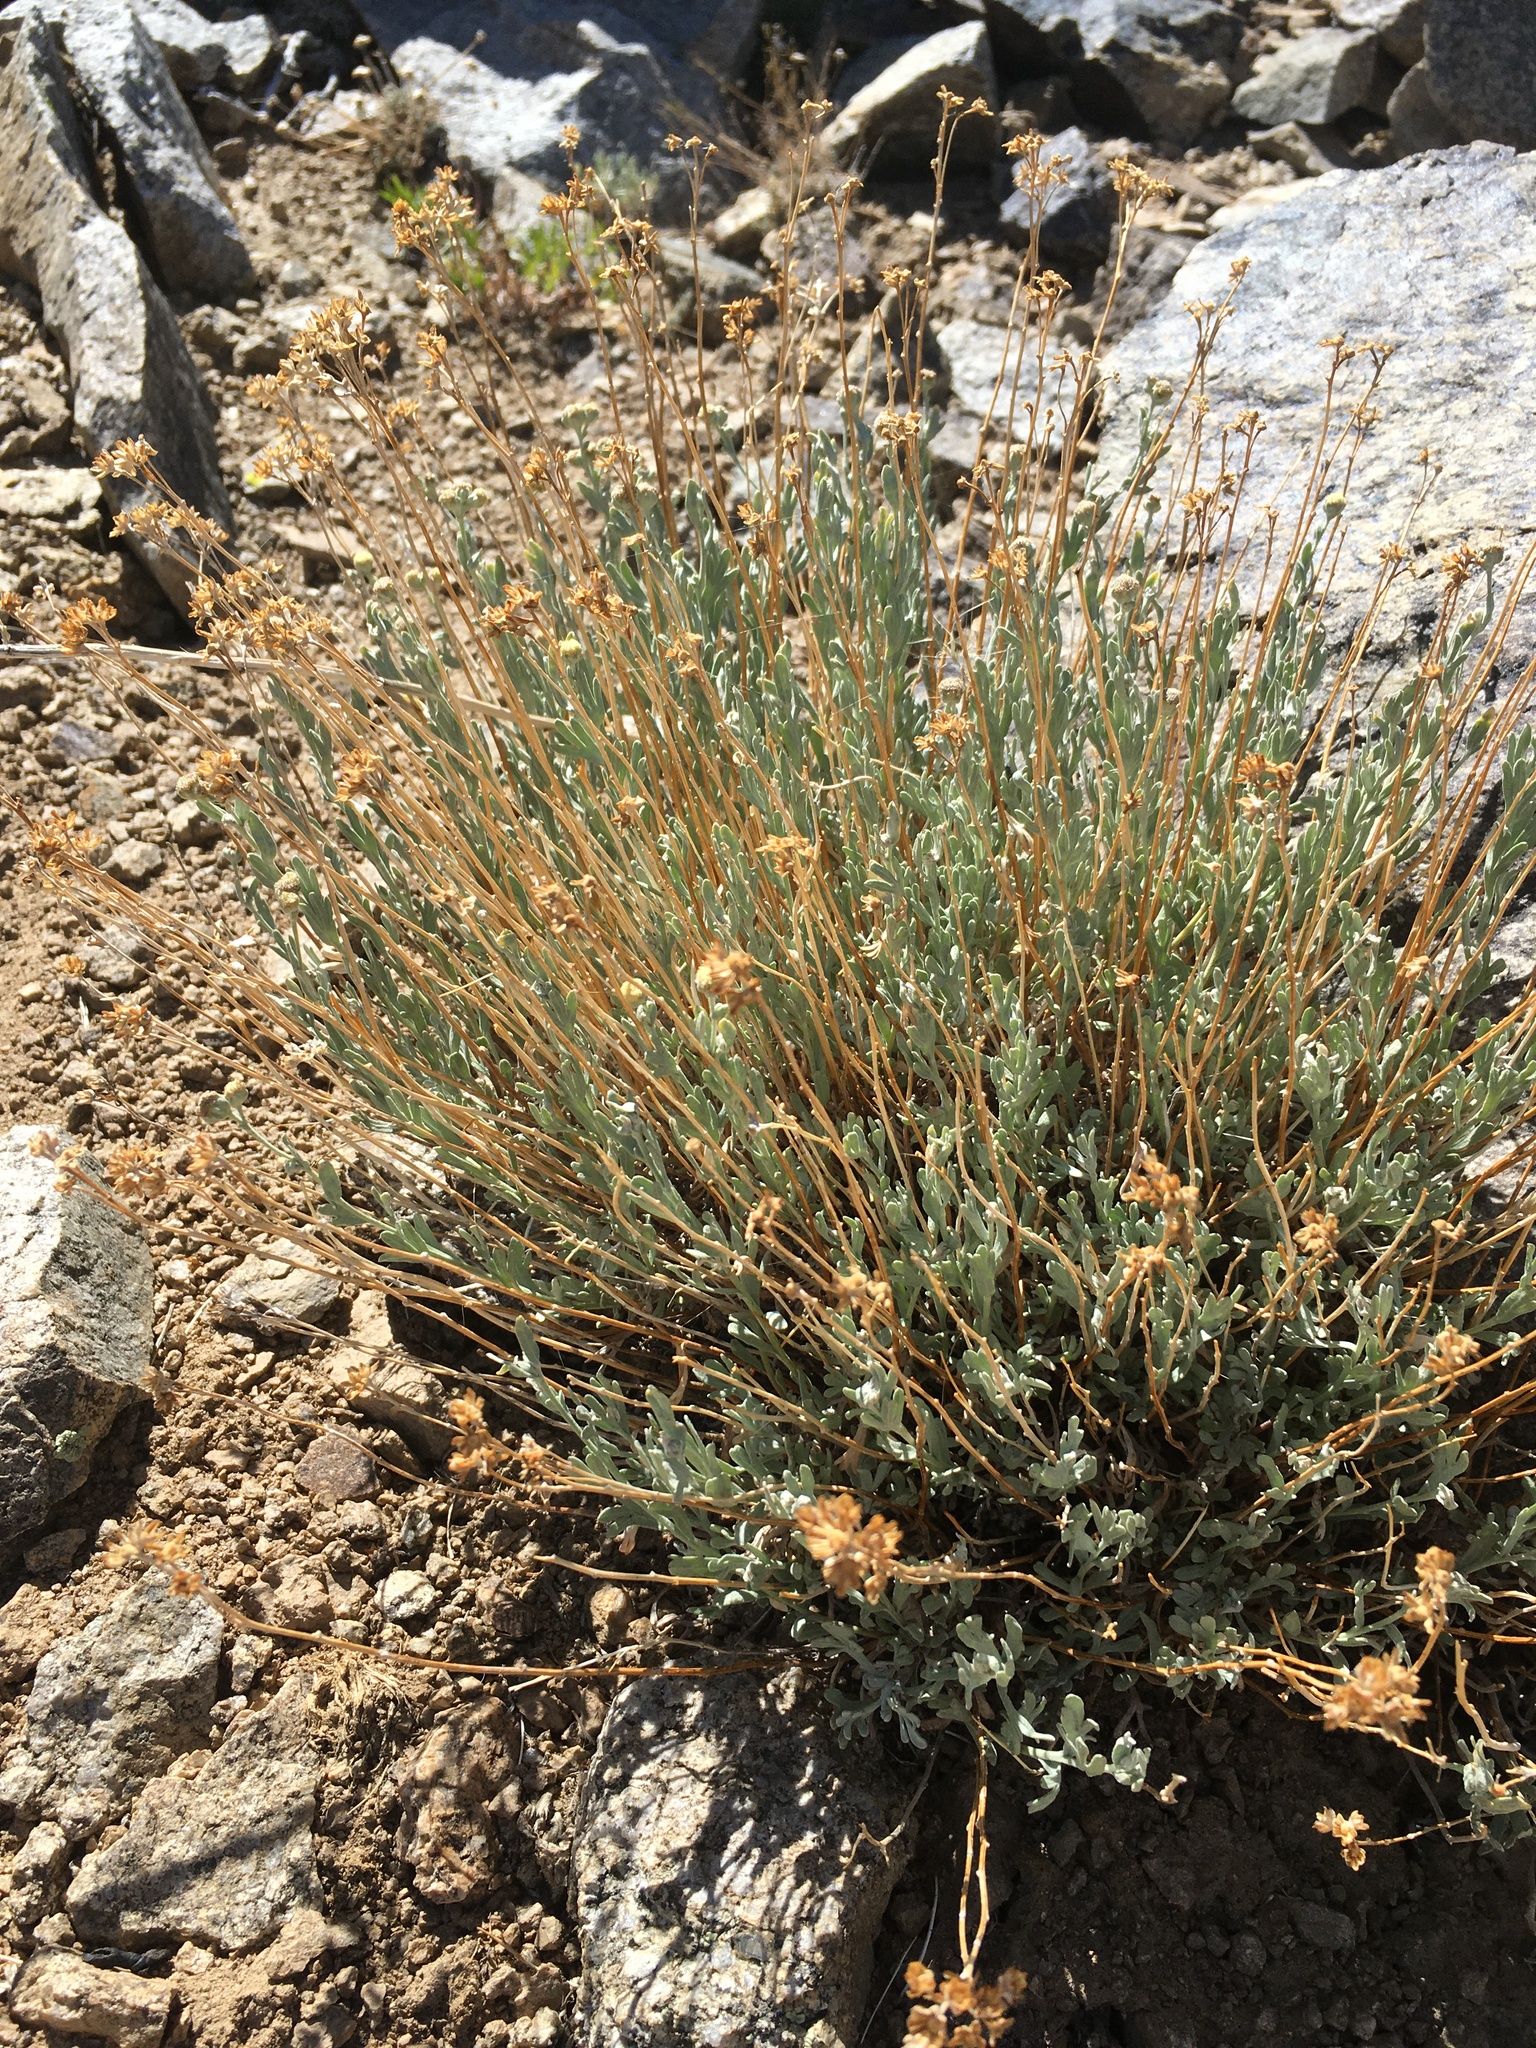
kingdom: Plantae
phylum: Tracheophyta
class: Magnoliopsida
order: Asterales
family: Asteraceae
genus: Artemisia
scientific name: Artemisia albicans
